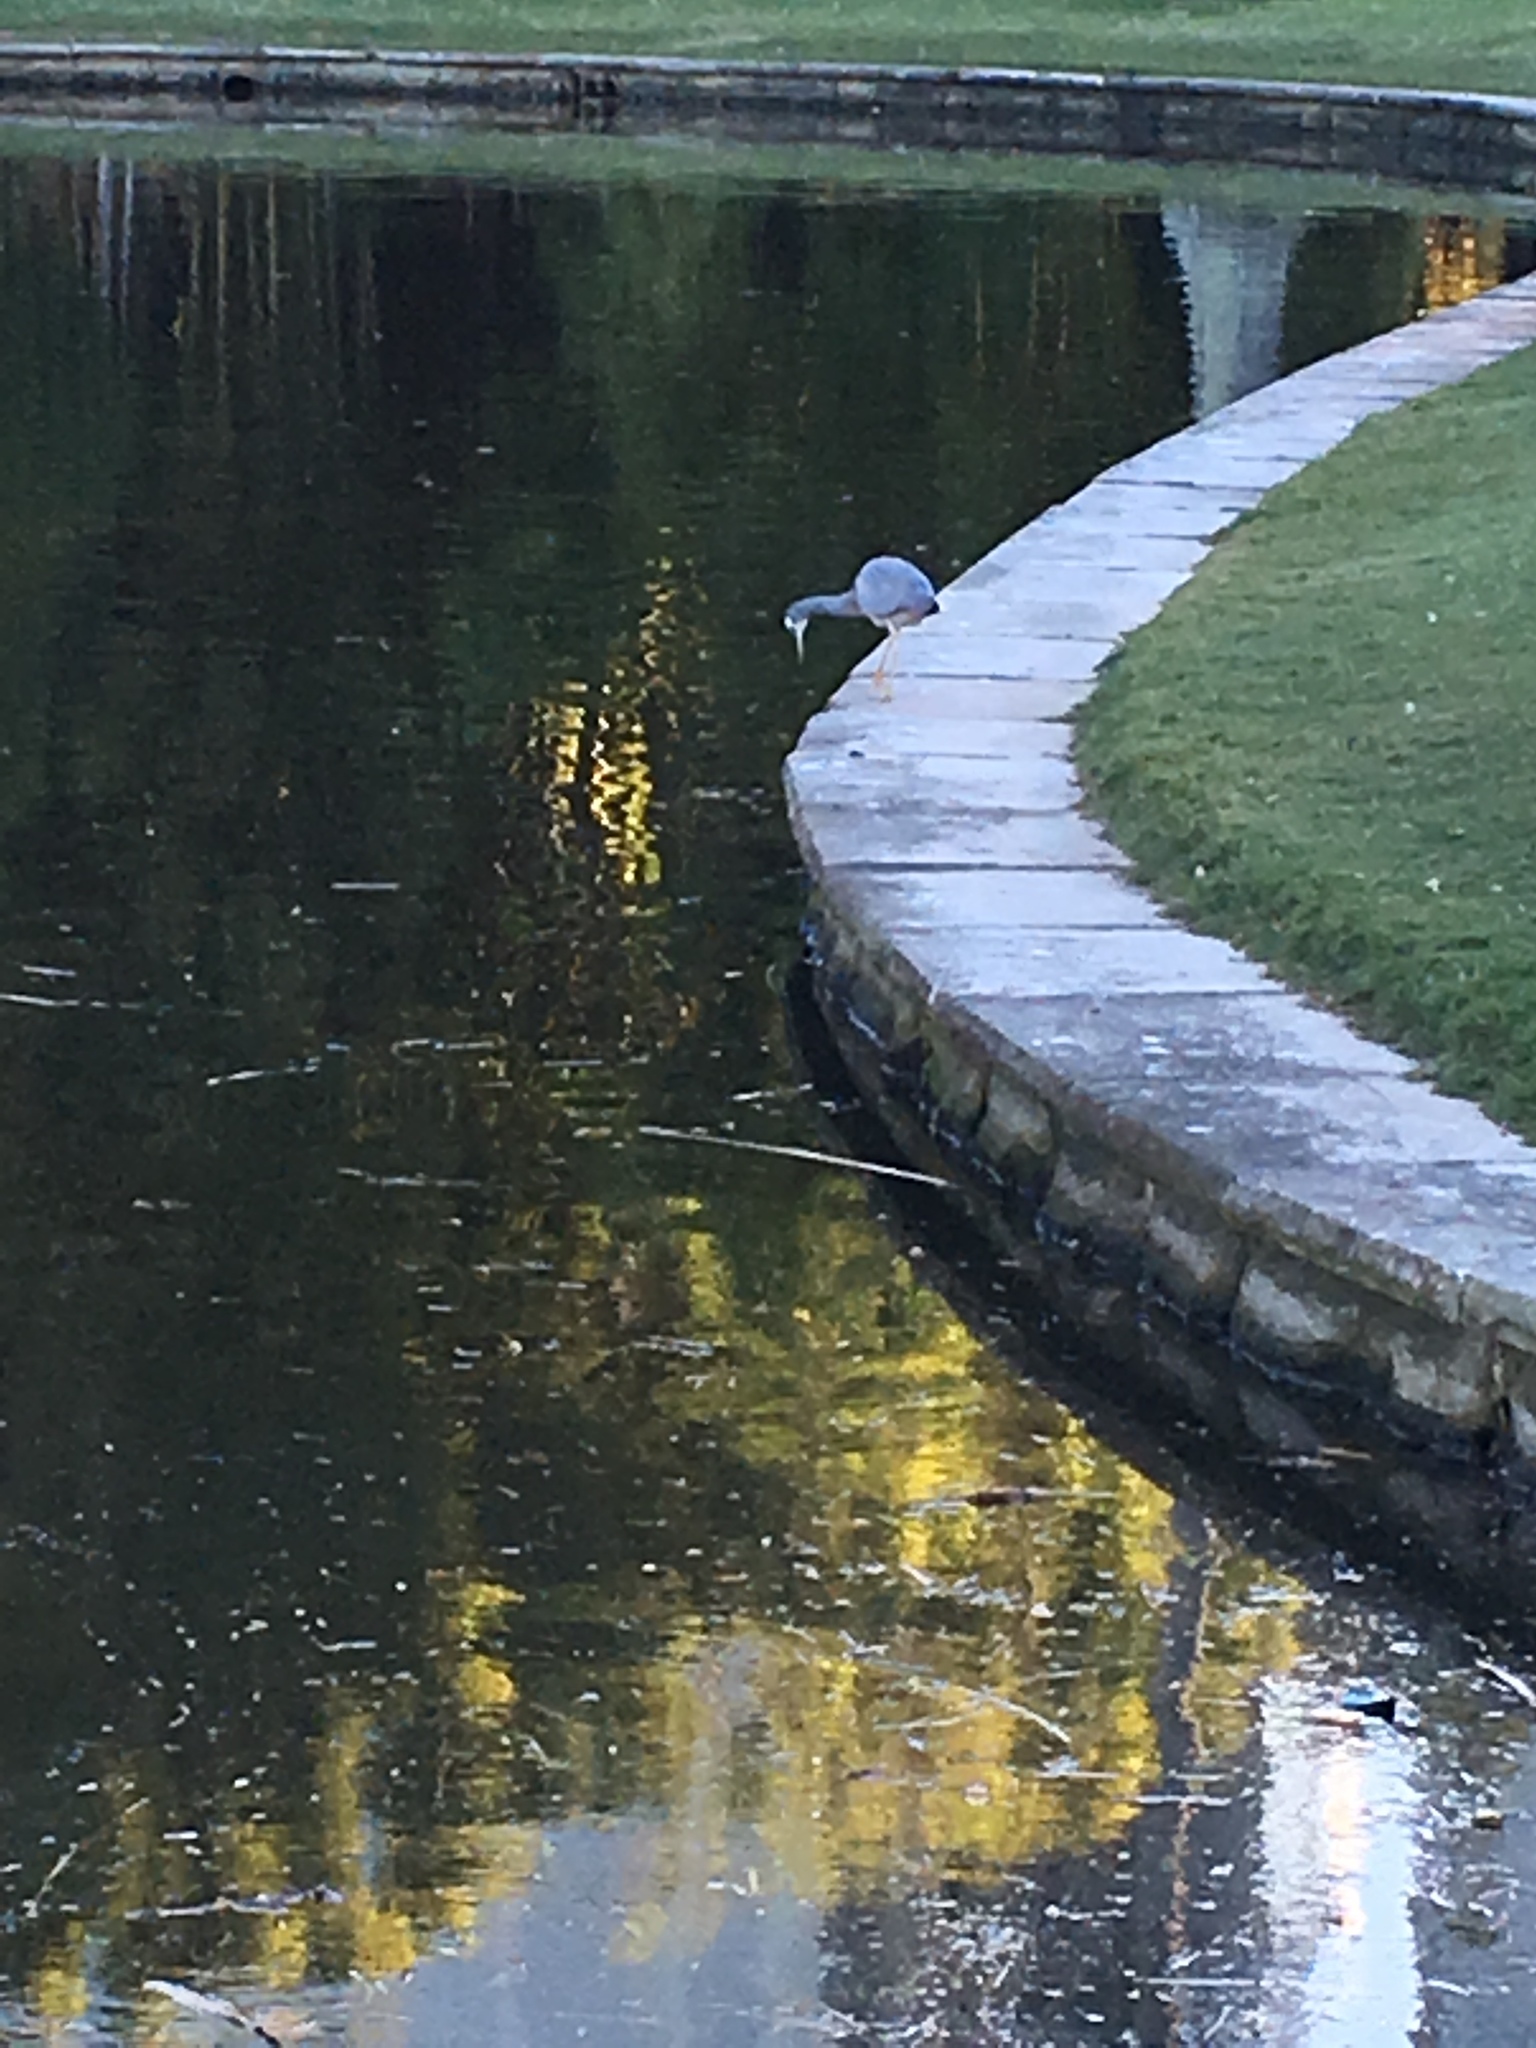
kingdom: Animalia
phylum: Chordata
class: Aves
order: Pelecaniformes
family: Ardeidae
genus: Egretta
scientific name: Egretta novaehollandiae
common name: White-faced heron
